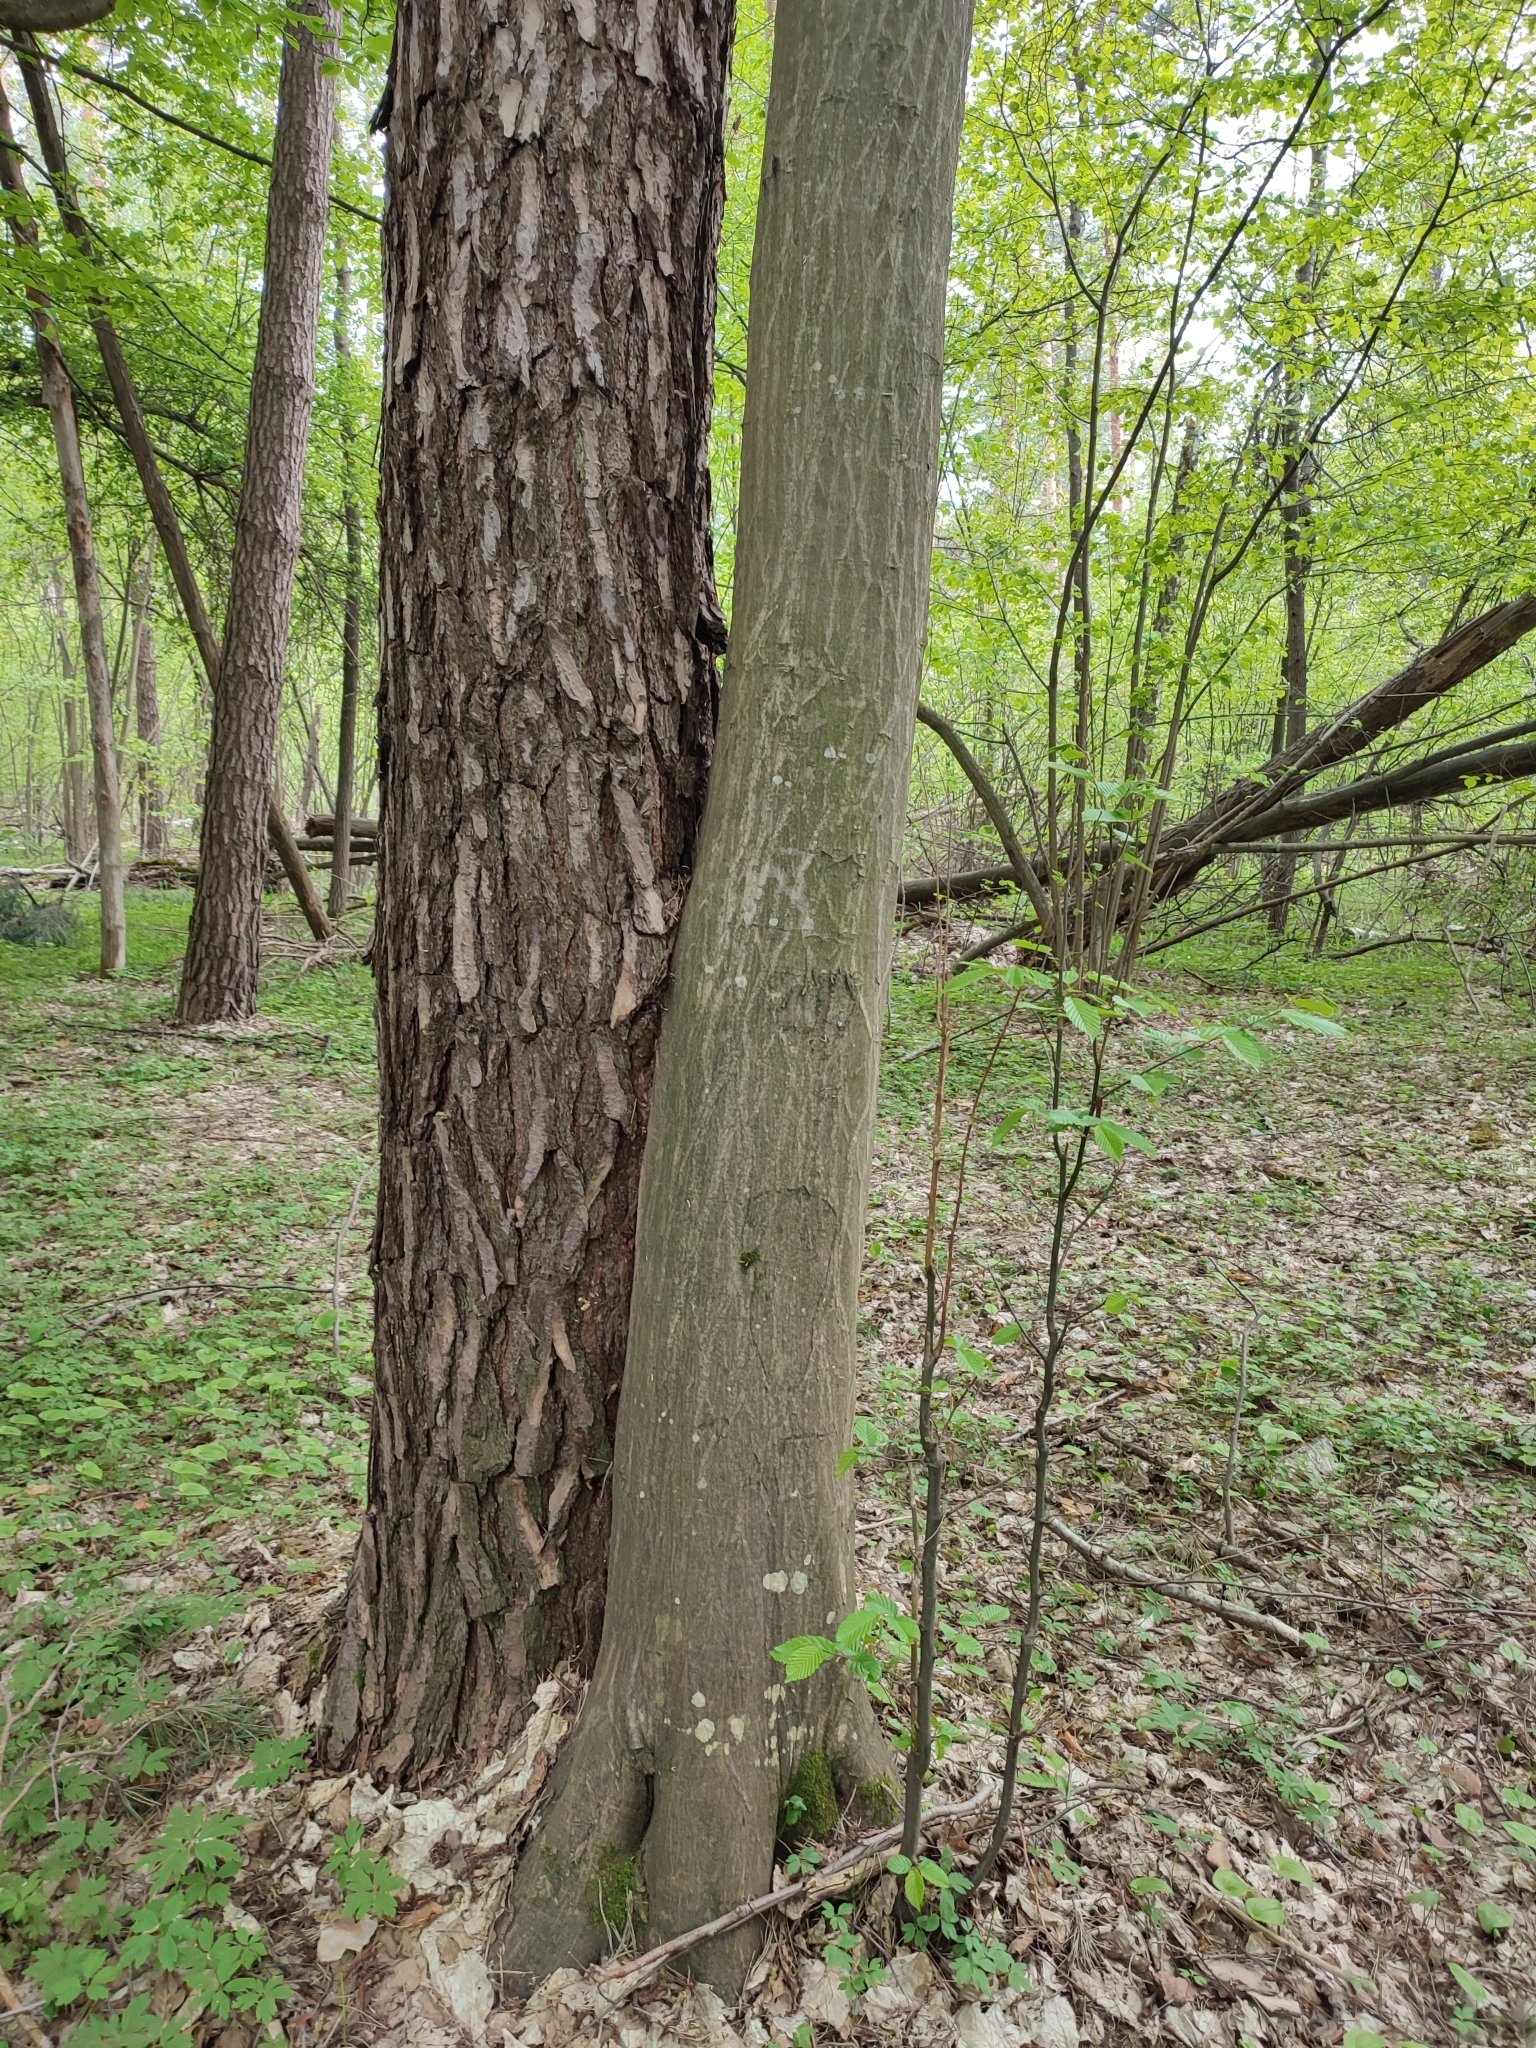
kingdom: Plantae
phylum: Tracheophyta
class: Magnoliopsida
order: Fagales
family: Betulaceae
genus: Carpinus
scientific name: Carpinus betulus
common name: Hornbeam
